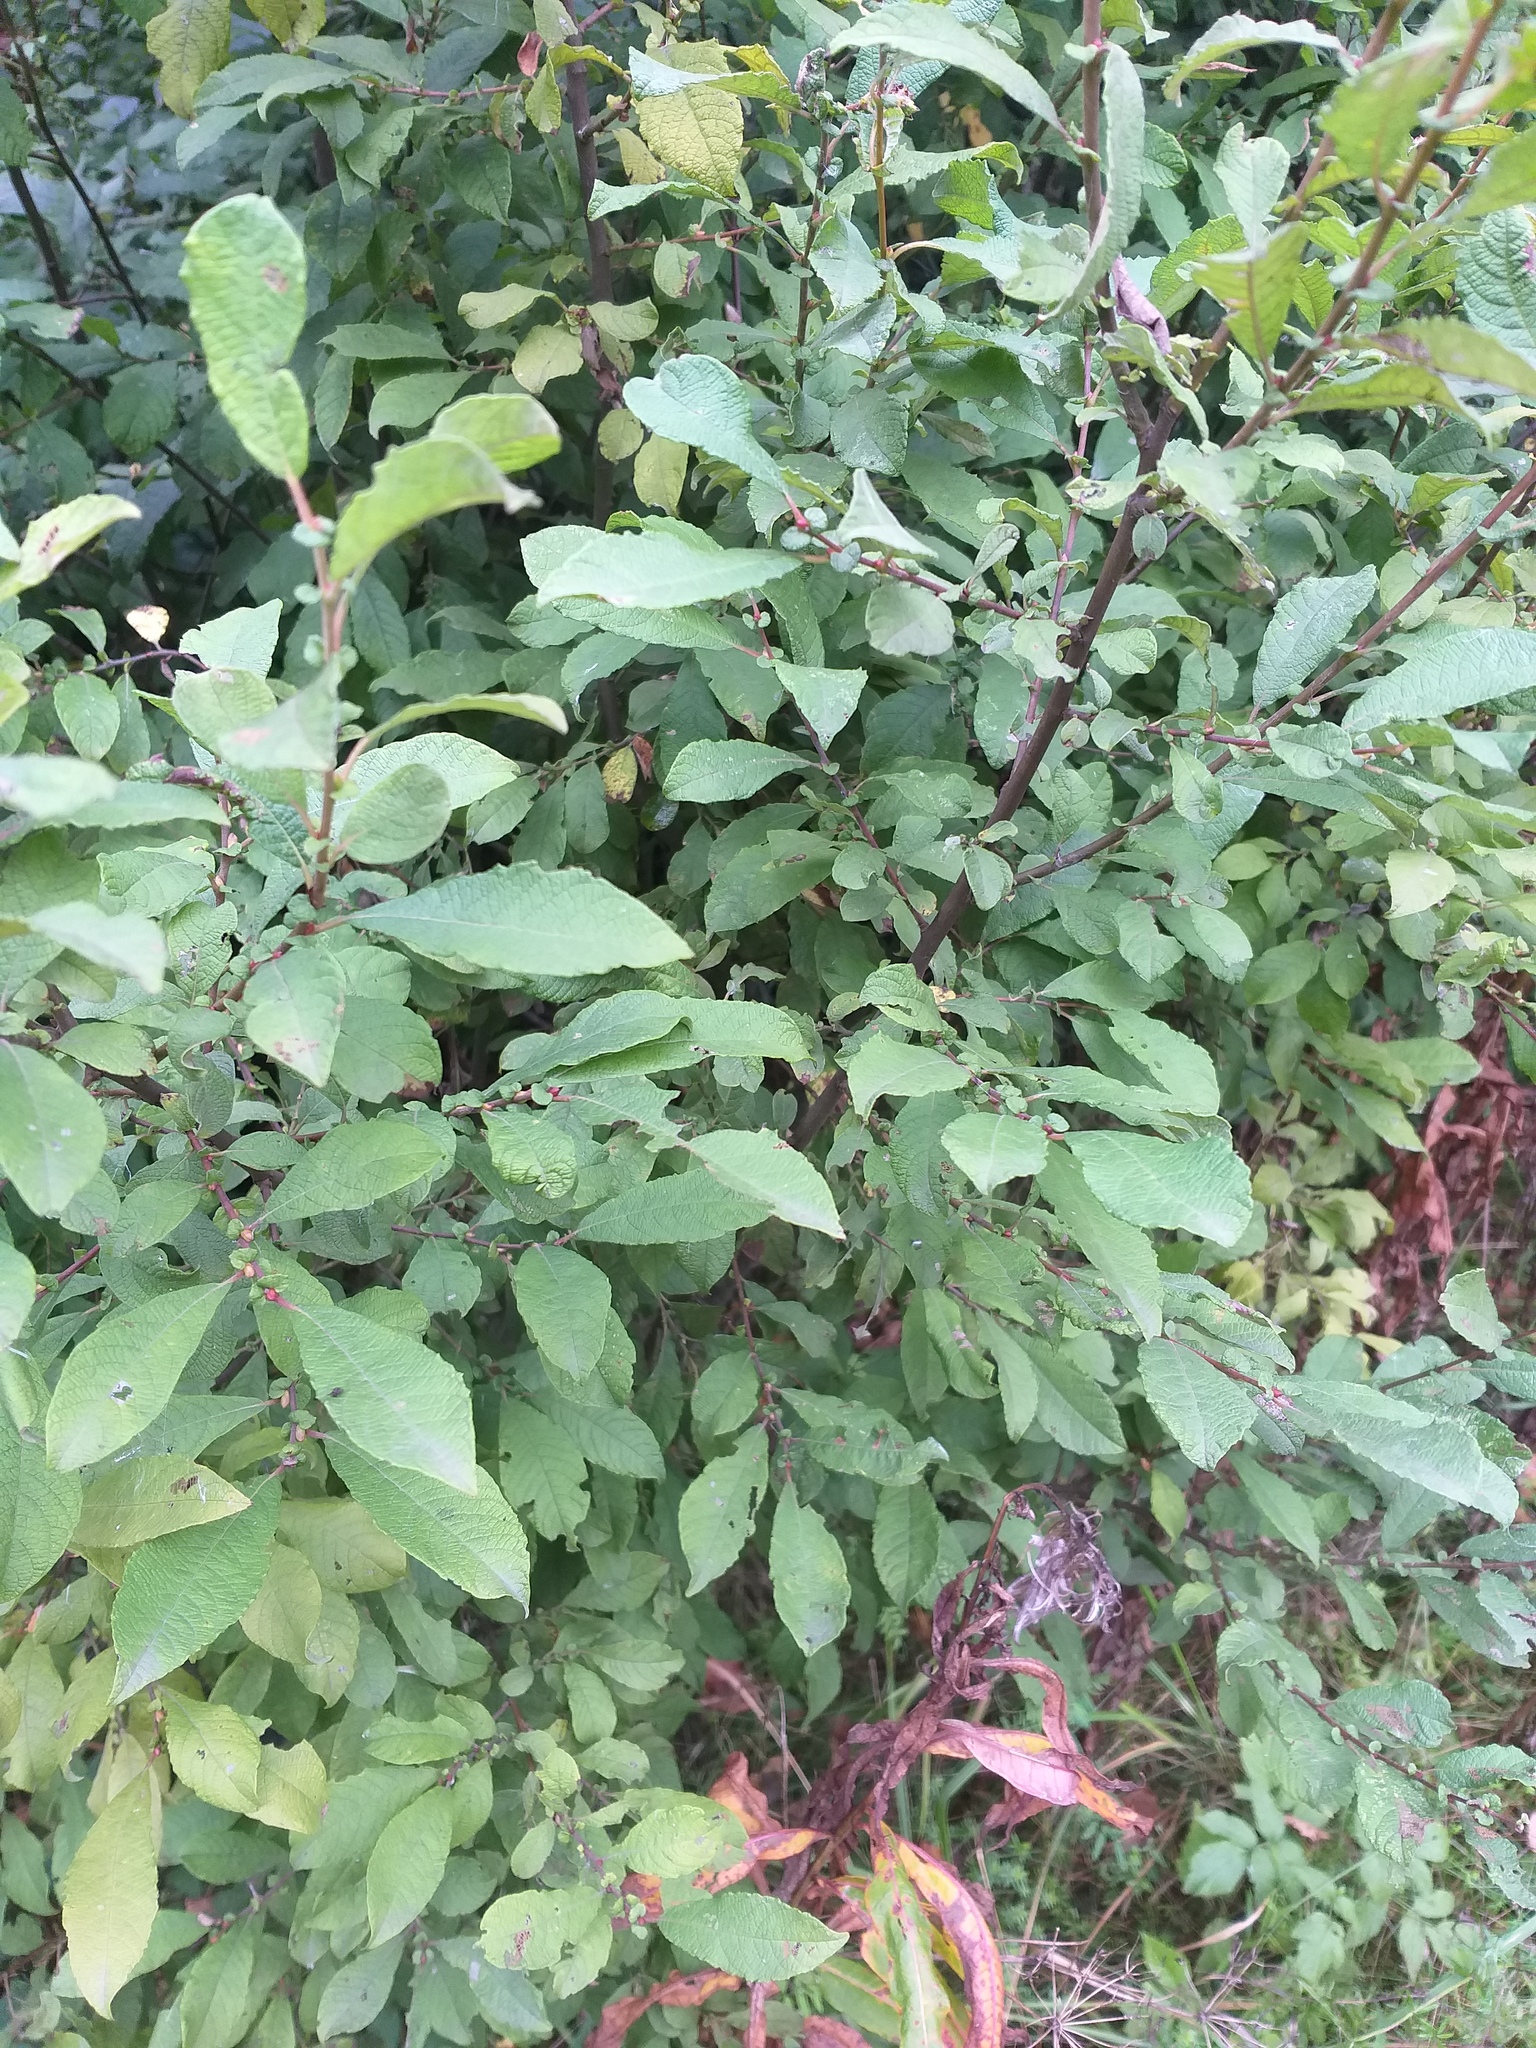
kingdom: Plantae
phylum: Tracheophyta
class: Magnoliopsida
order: Malpighiales
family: Salicaceae
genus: Salix
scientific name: Salix aurita
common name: Eared willow
